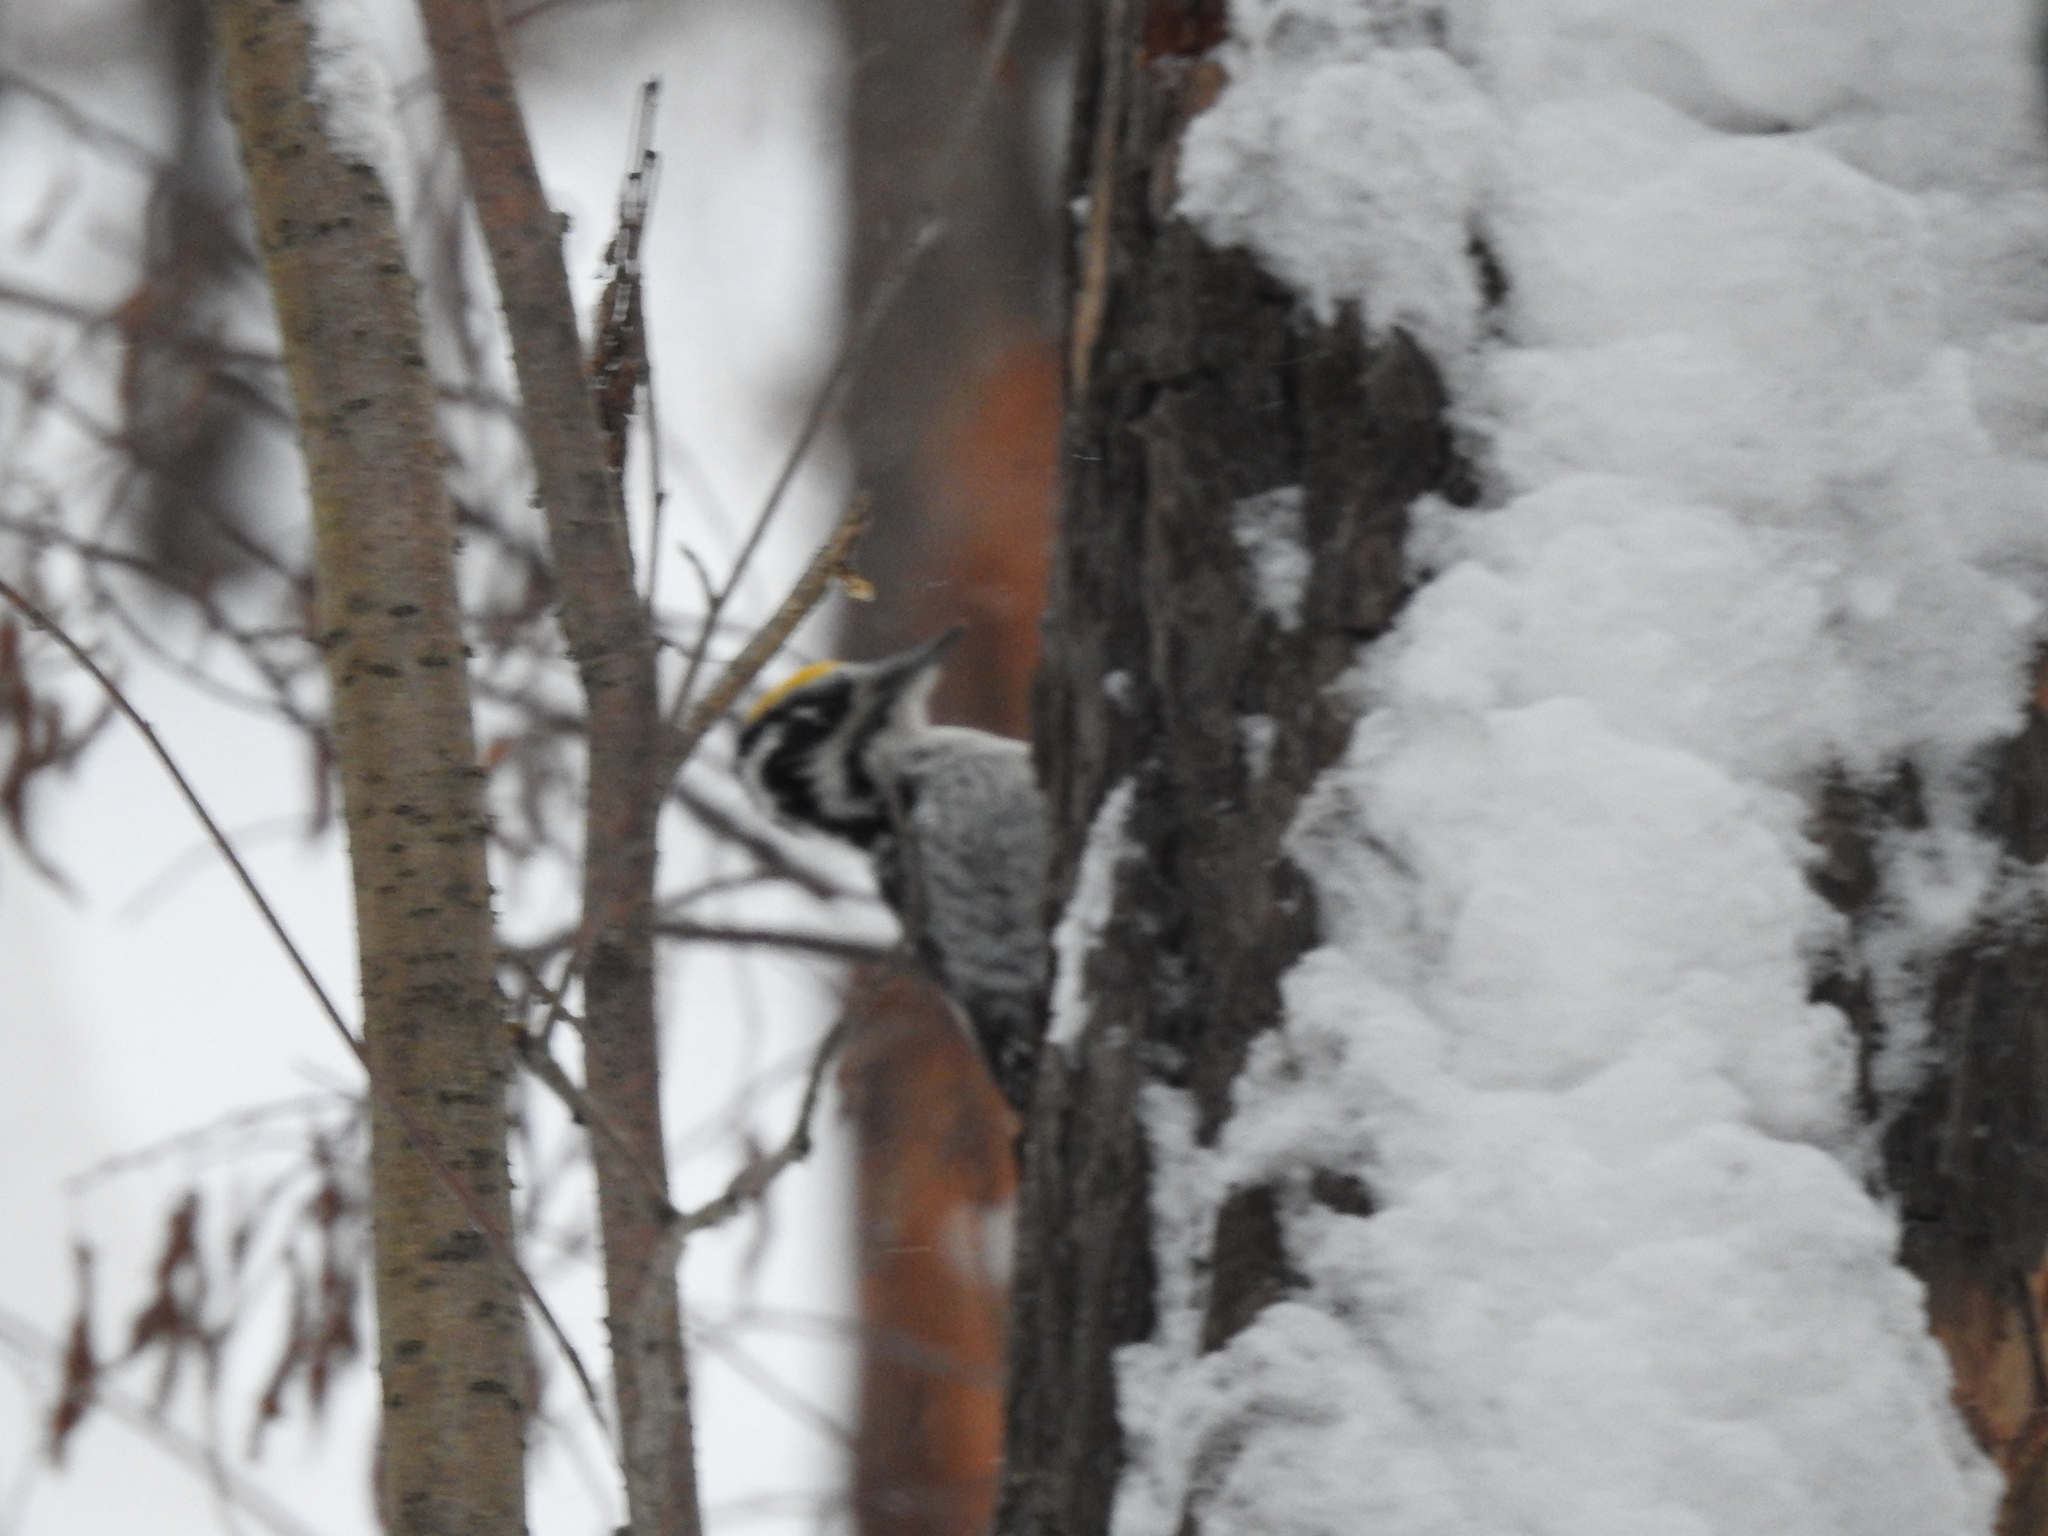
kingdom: Animalia
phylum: Chordata
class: Aves
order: Piciformes
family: Picidae
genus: Picoides
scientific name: Picoides tridactylus
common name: Eurasian three-toed woodpecker
